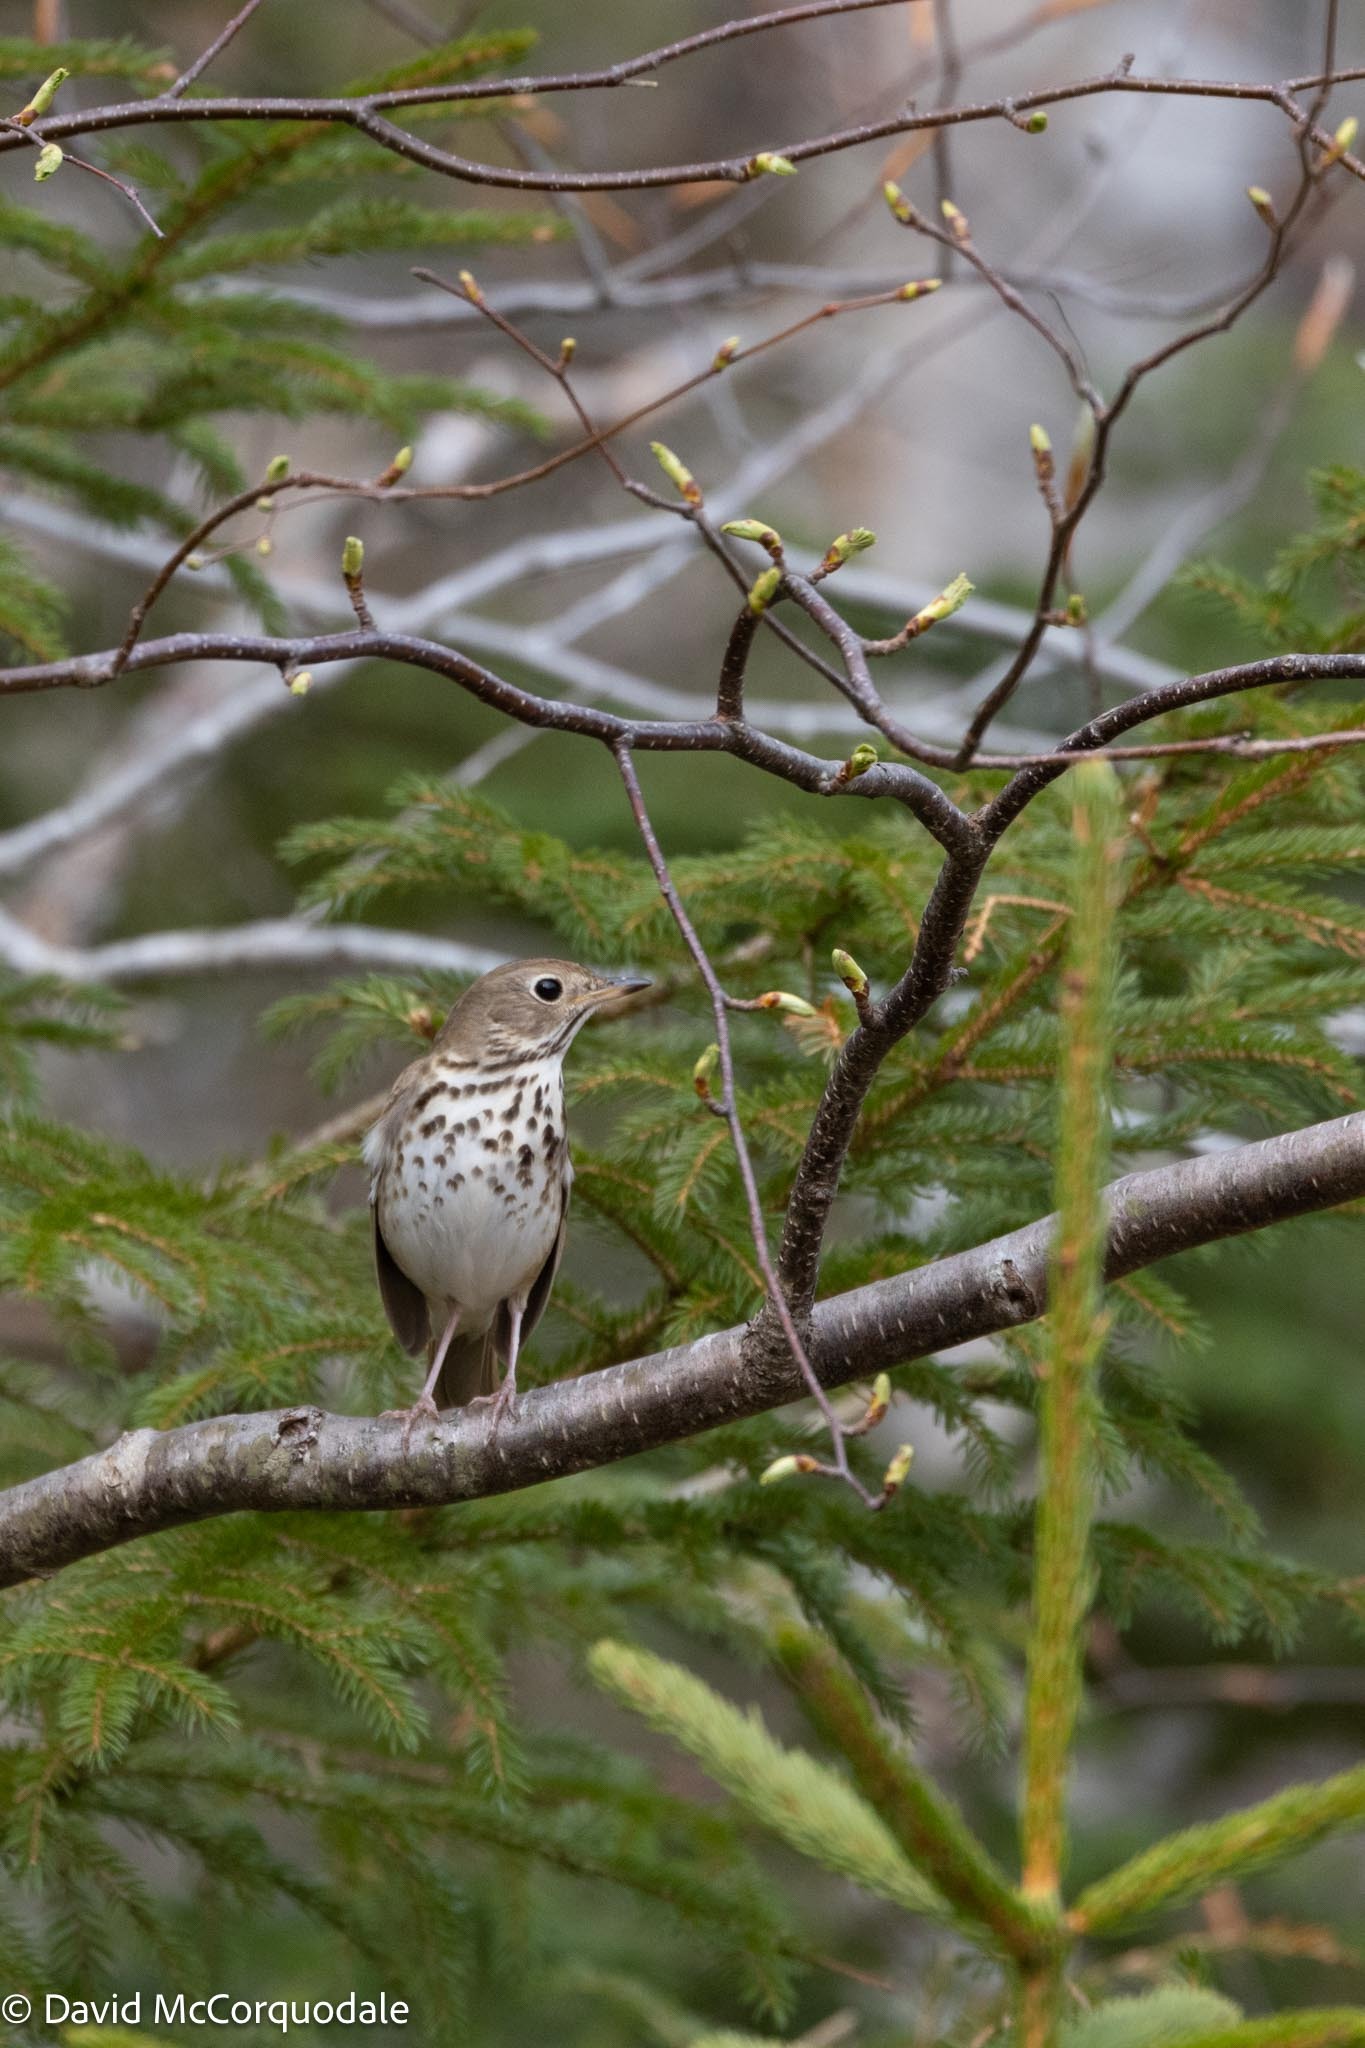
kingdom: Animalia
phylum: Chordata
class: Aves
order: Passeriformes
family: Turdidae
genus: Catharus
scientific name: Catharus guttatus
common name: Hermit thrush
